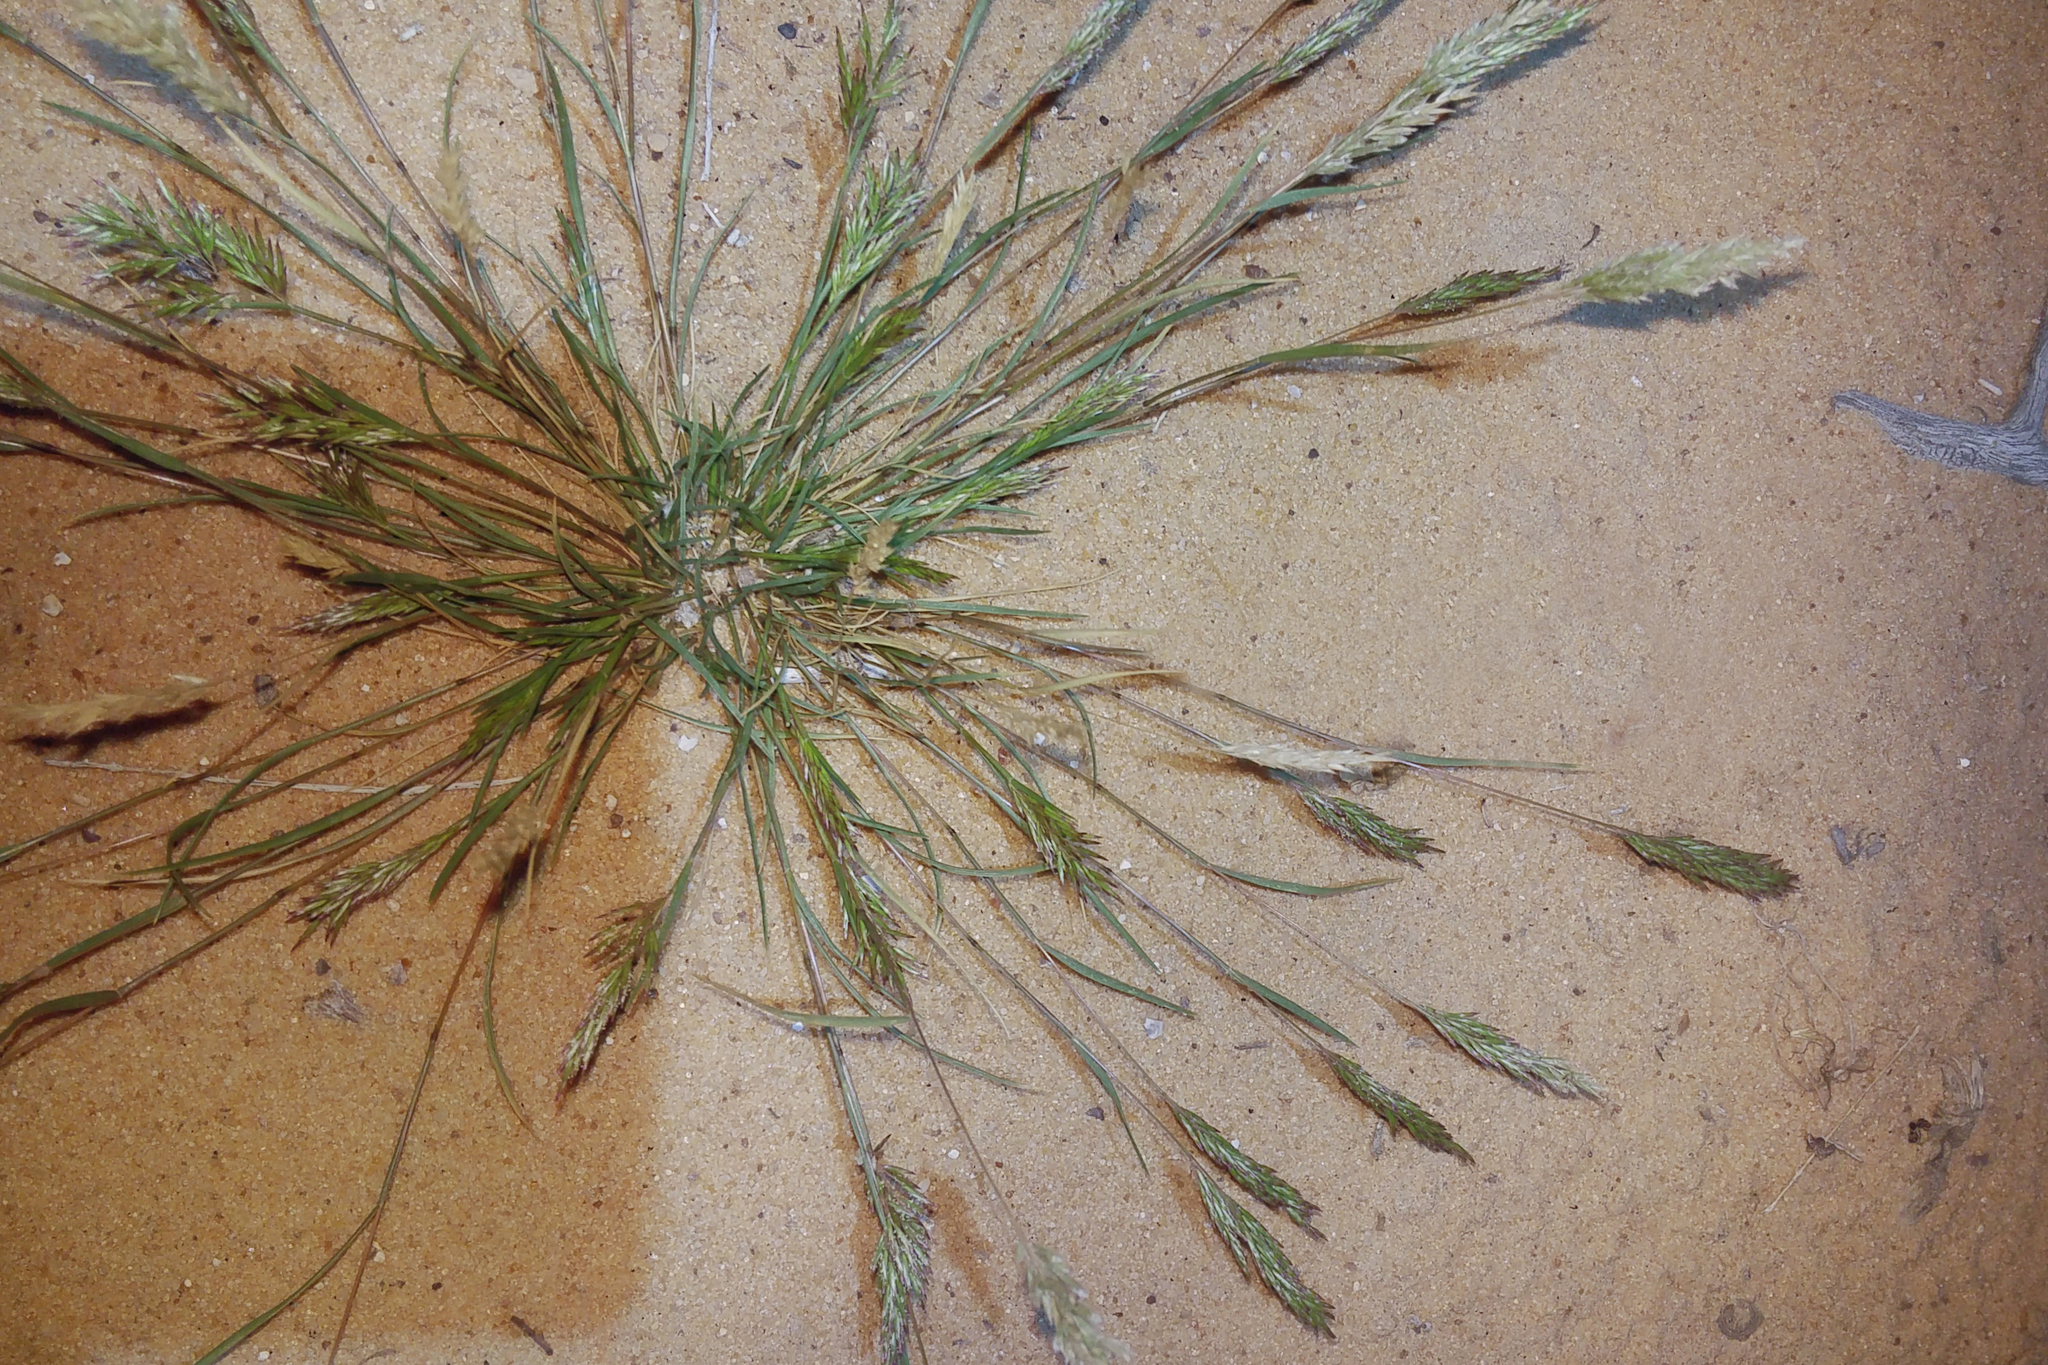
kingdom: Plantae
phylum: Tracheophyta
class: Liliopsida
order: Poales
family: Poaceae
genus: Schismus
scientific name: Schismus arabicus
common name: Arabian schismus
